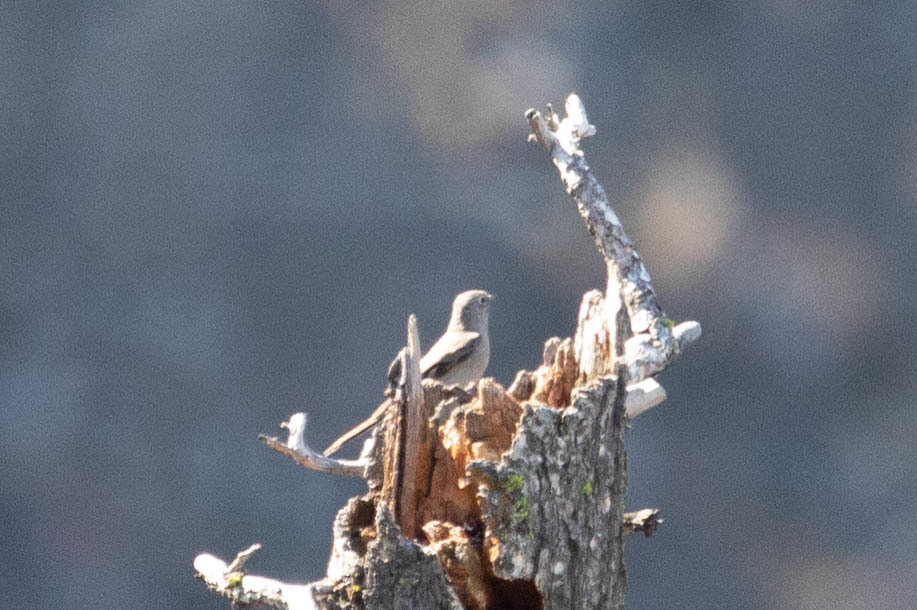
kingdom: Animalia
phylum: Chordata
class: Aves
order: Passeriformes
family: Turdidae
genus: Myadestes
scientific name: Myadestes townsendi
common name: Townsend's solitaire
